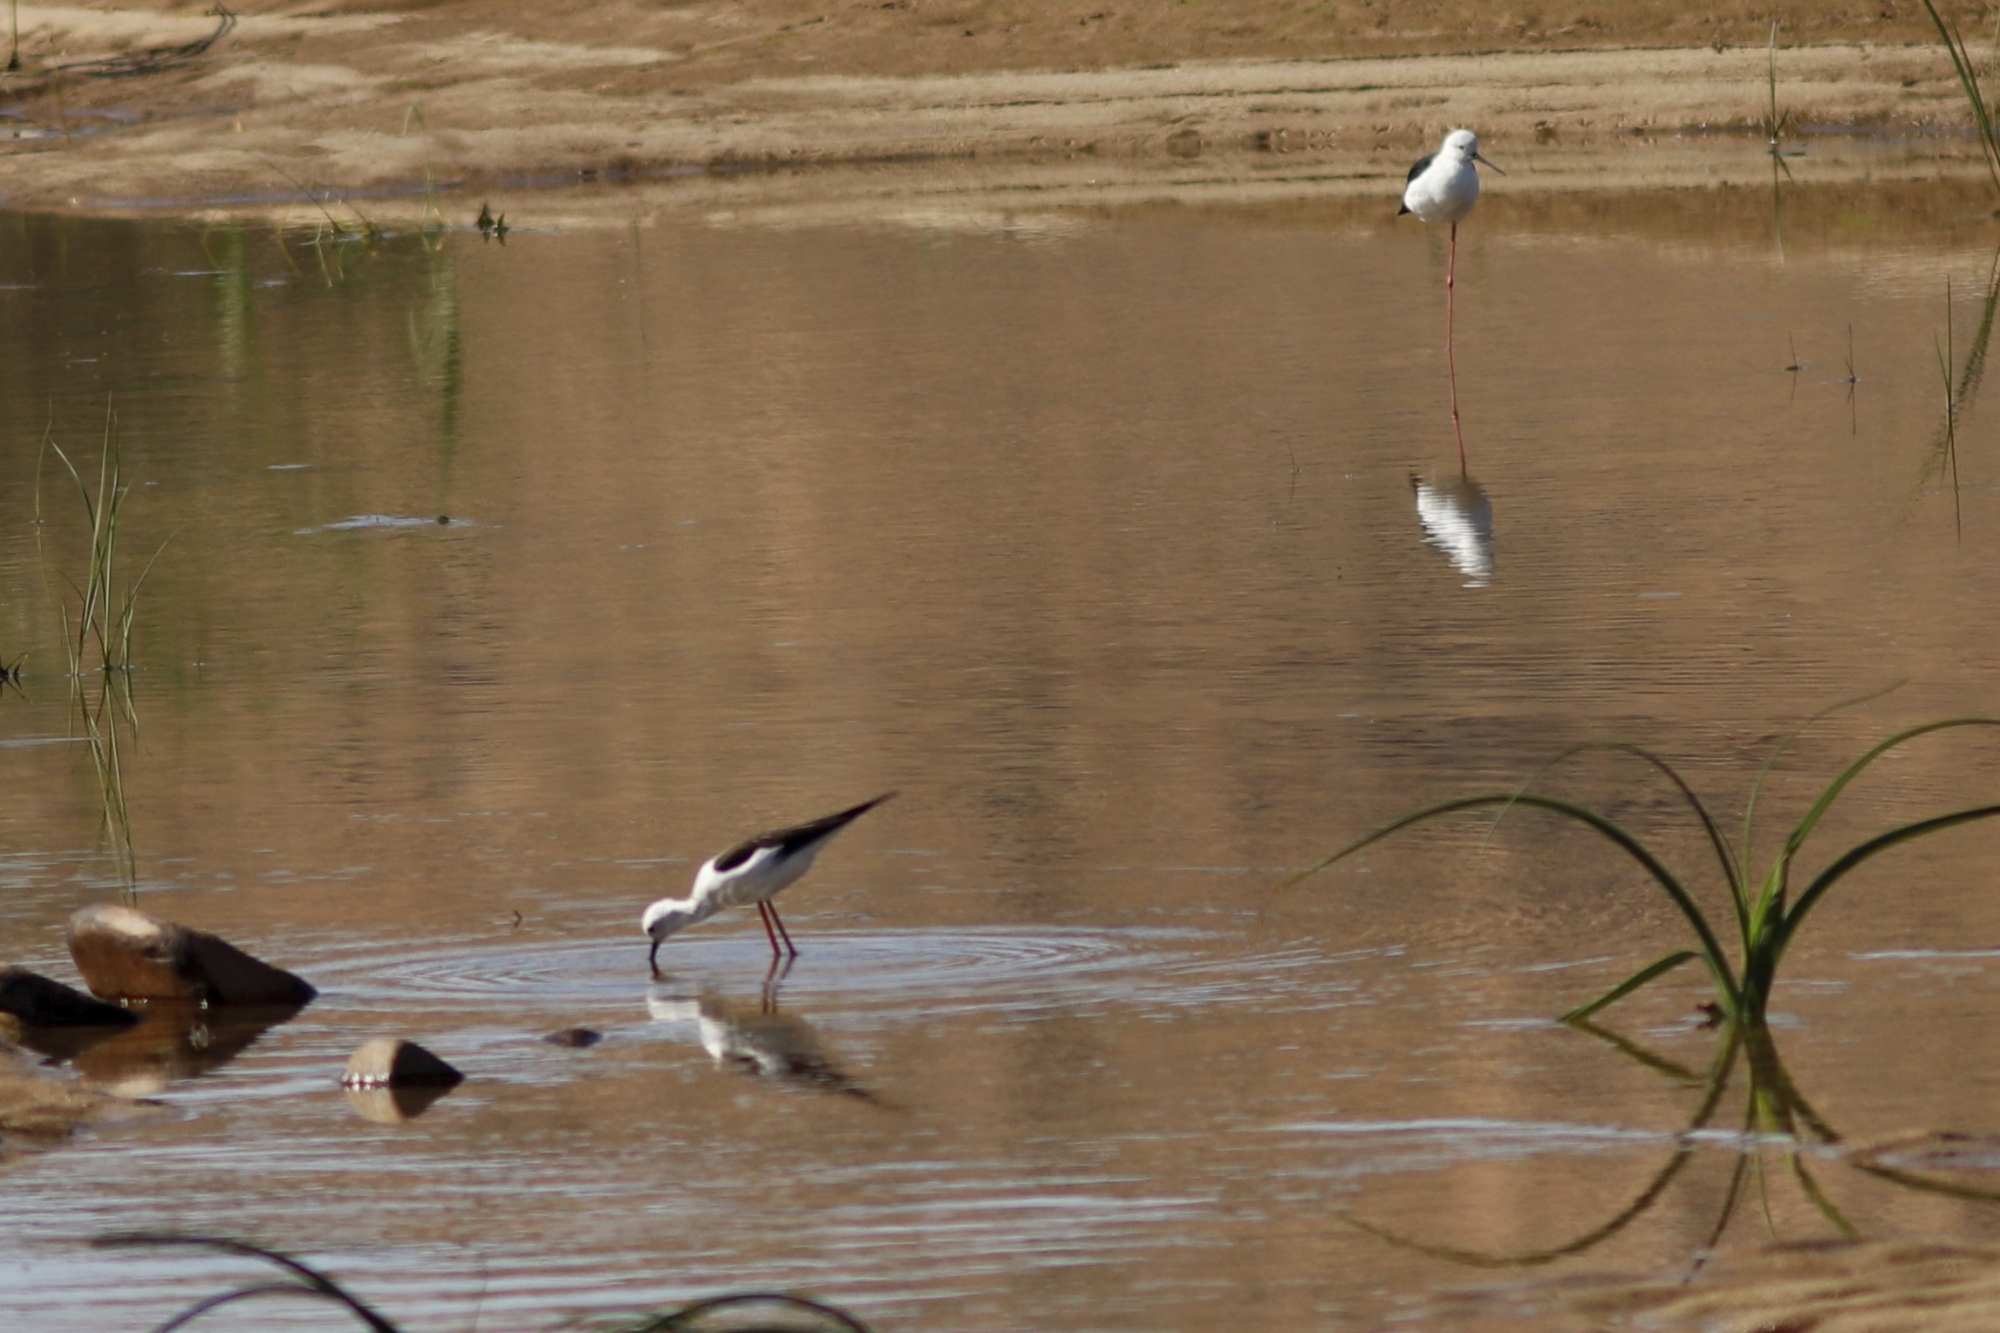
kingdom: Animalia
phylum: Chordata
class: Aves
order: Charadriiformes
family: Recurvirostridae
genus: Himantopus
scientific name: Himantopus himantopus
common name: Black-winged stilt
